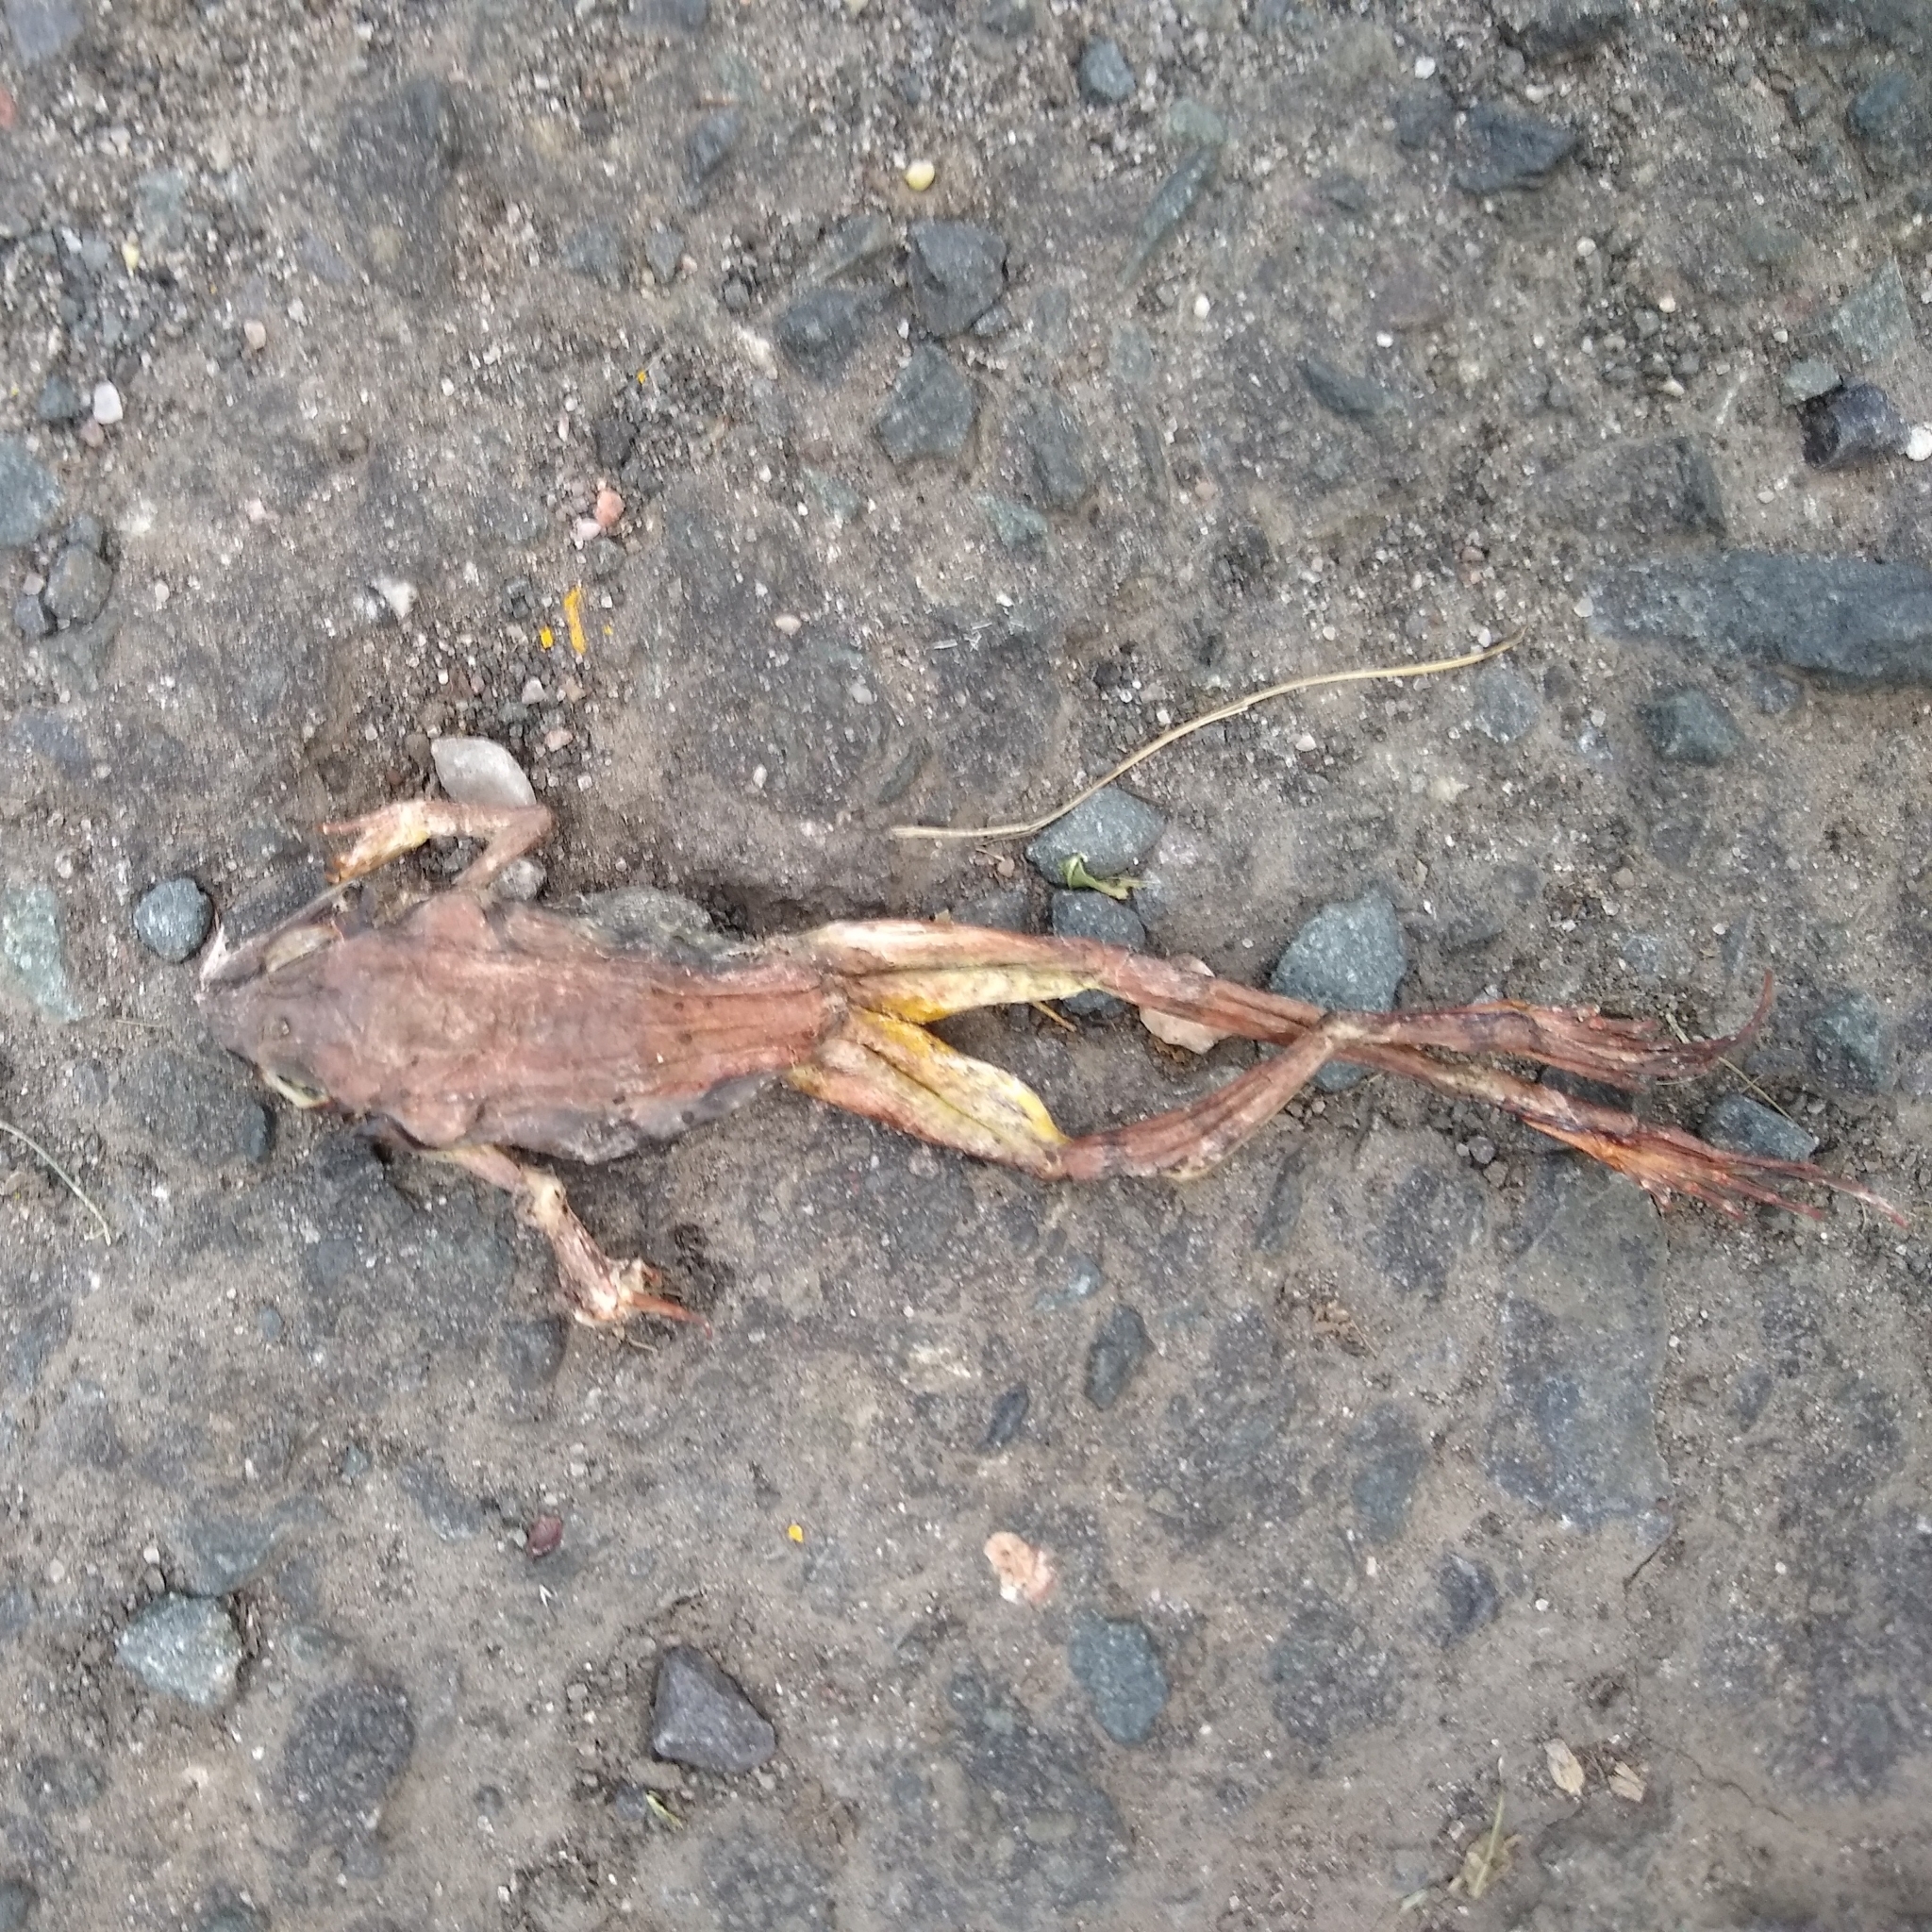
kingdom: Animalia
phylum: Chordata
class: Amphibia
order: Anura
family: Ranidae
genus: Lithobates
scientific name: Lithobates sylvaticus
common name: Wood frog
